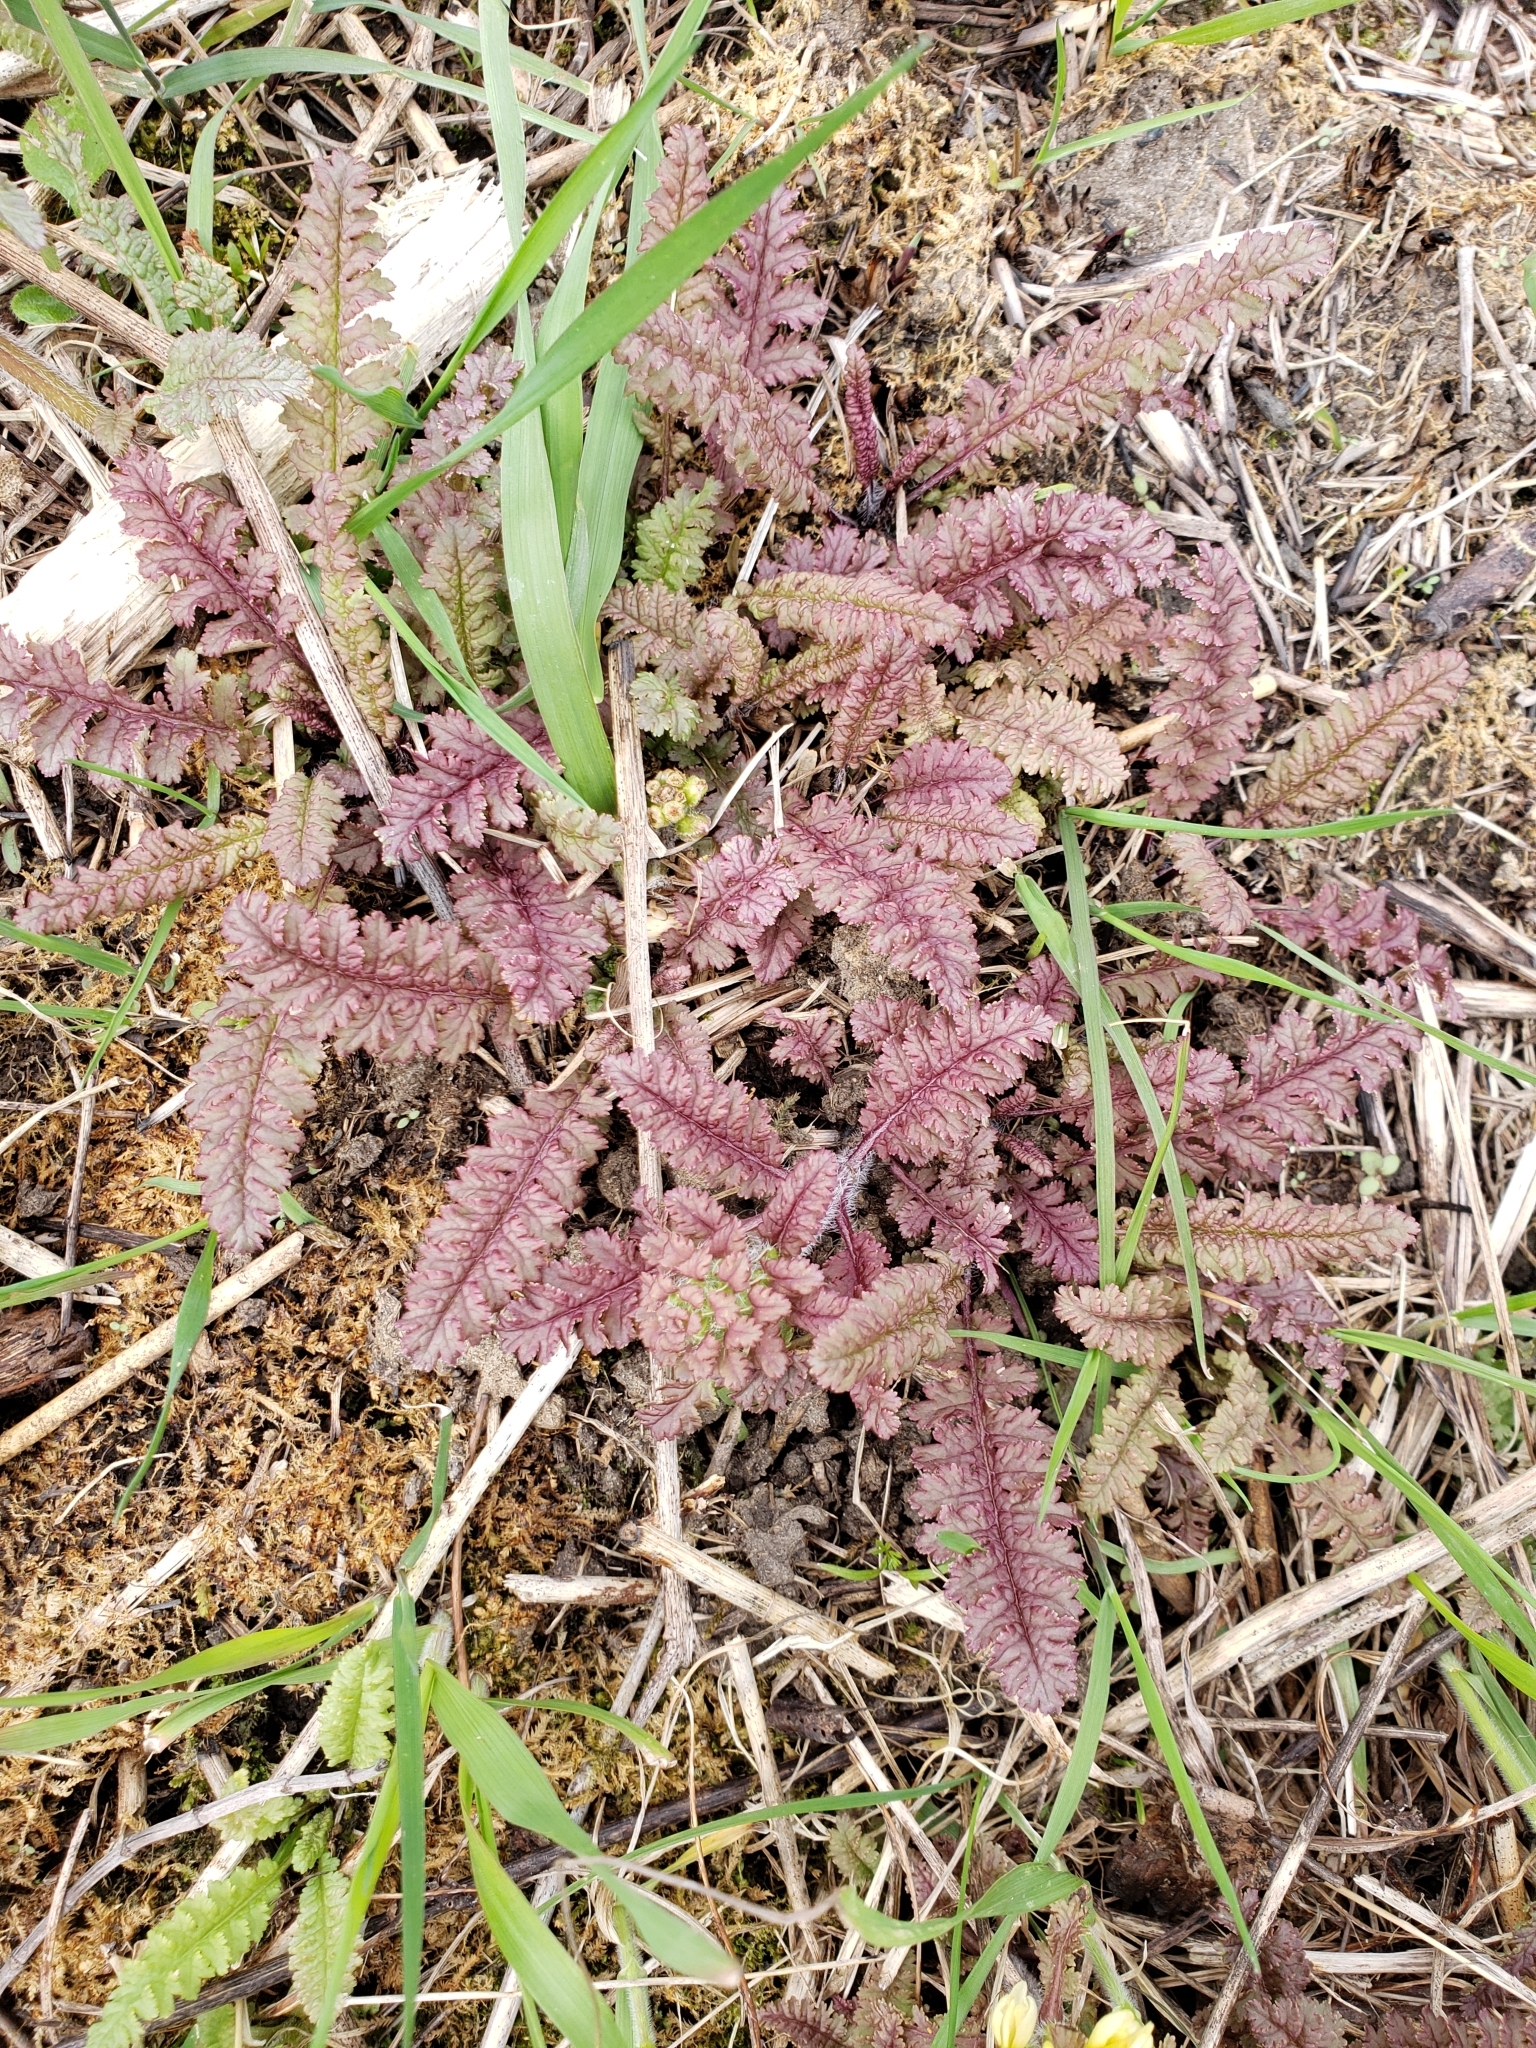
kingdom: Plantae
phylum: Tracheophyta
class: Magnoliopsida
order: Lamiales
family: Orobanchaceae
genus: Pedicularis
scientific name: Pedicularis canadensis
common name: Early lousewort
